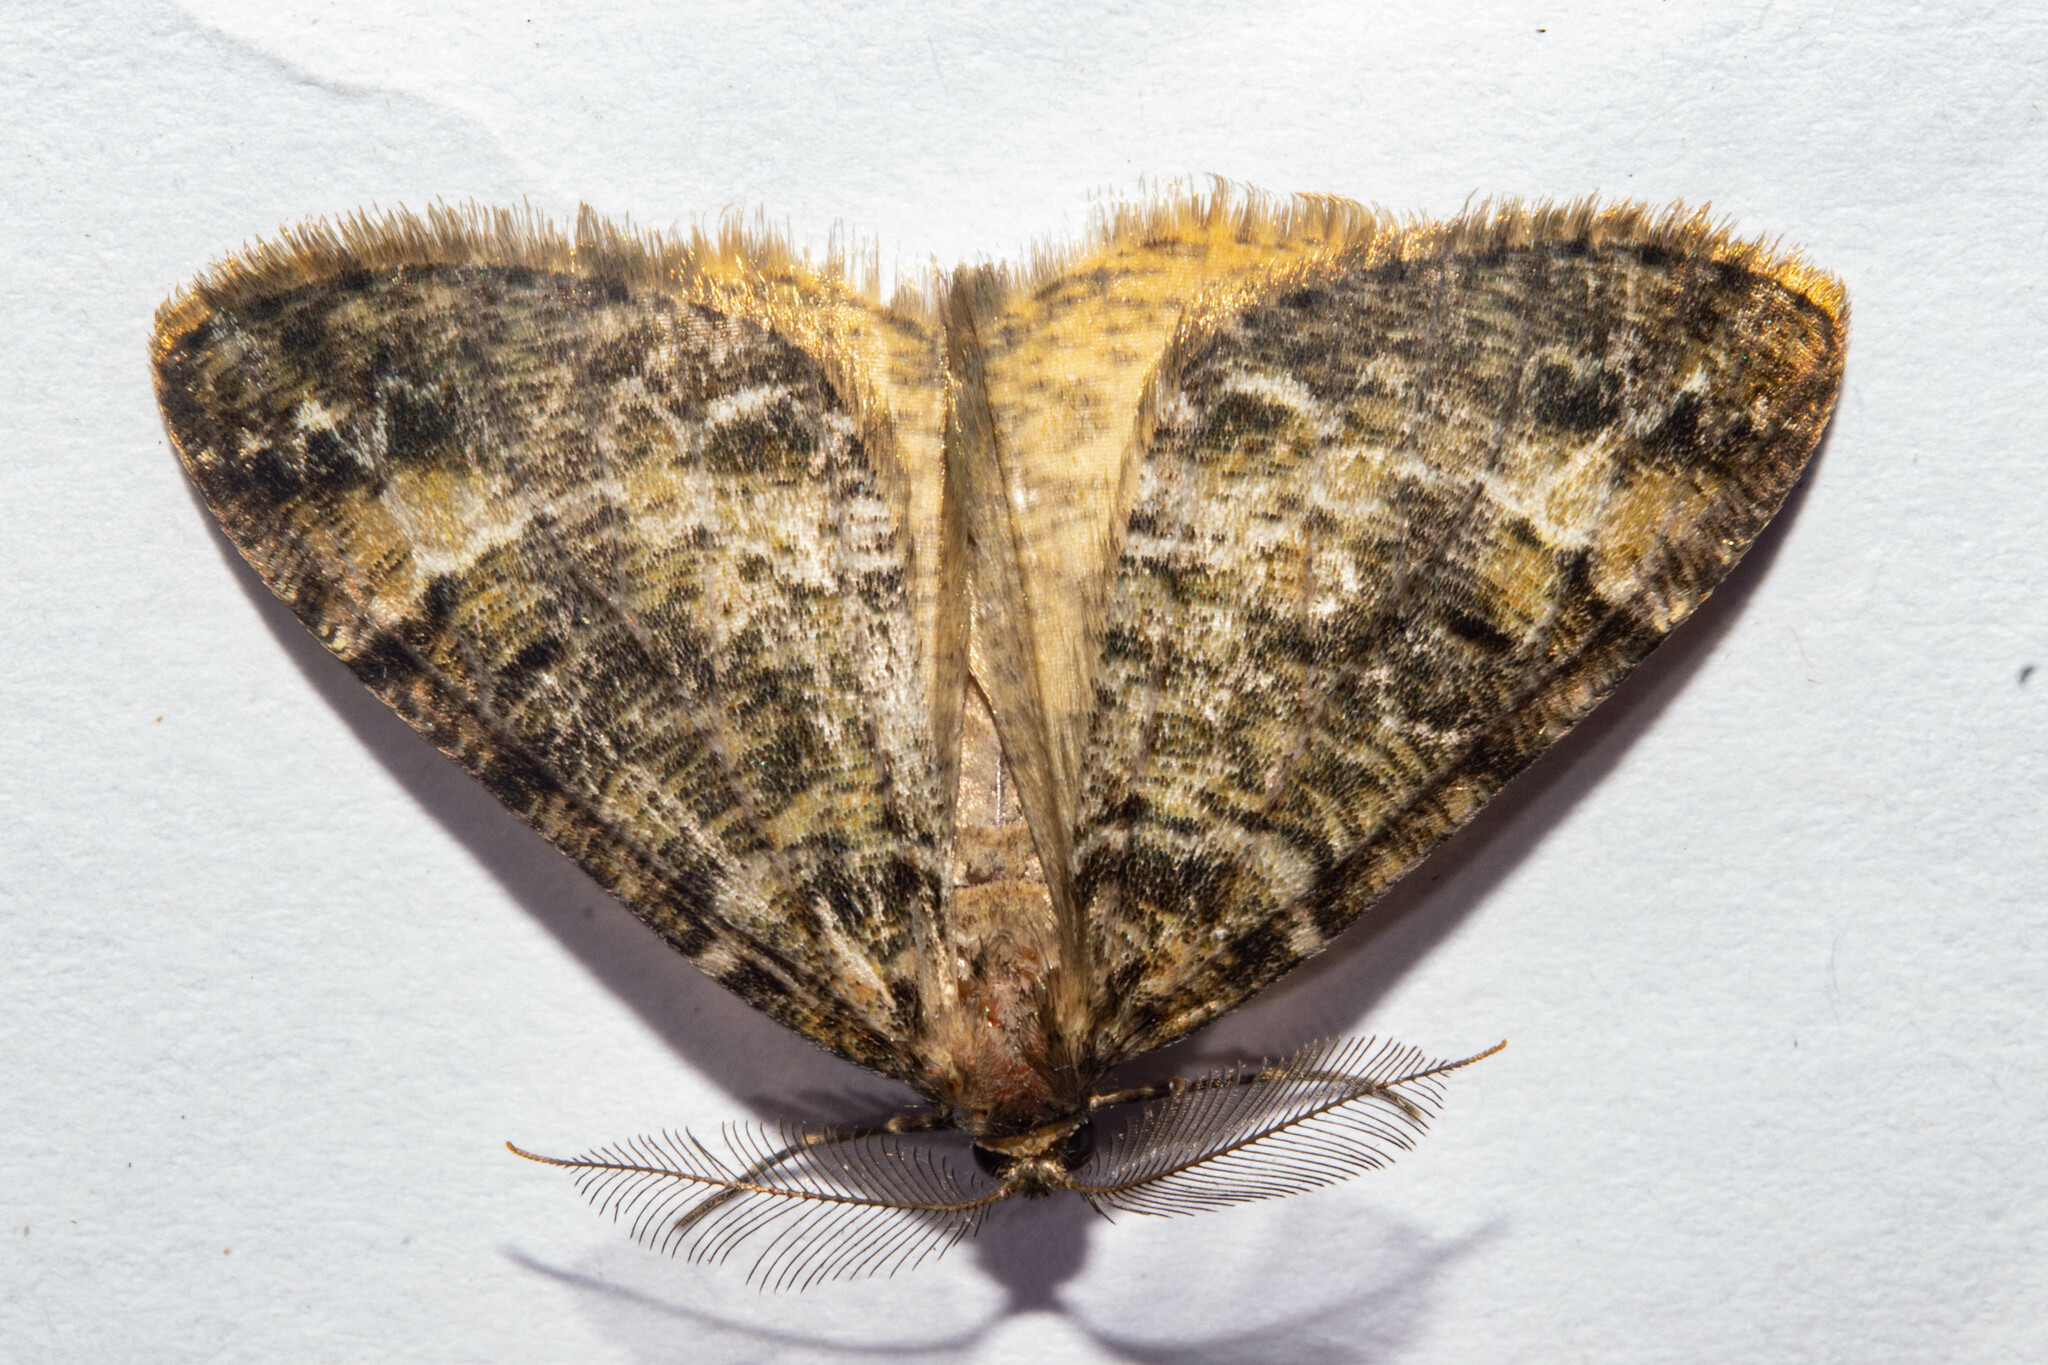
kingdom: Animalia
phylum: Arthropoda
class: Insecta
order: Lepidoptera
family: Geometridae
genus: Pseudocoremia
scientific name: Pseudocoremia productata
